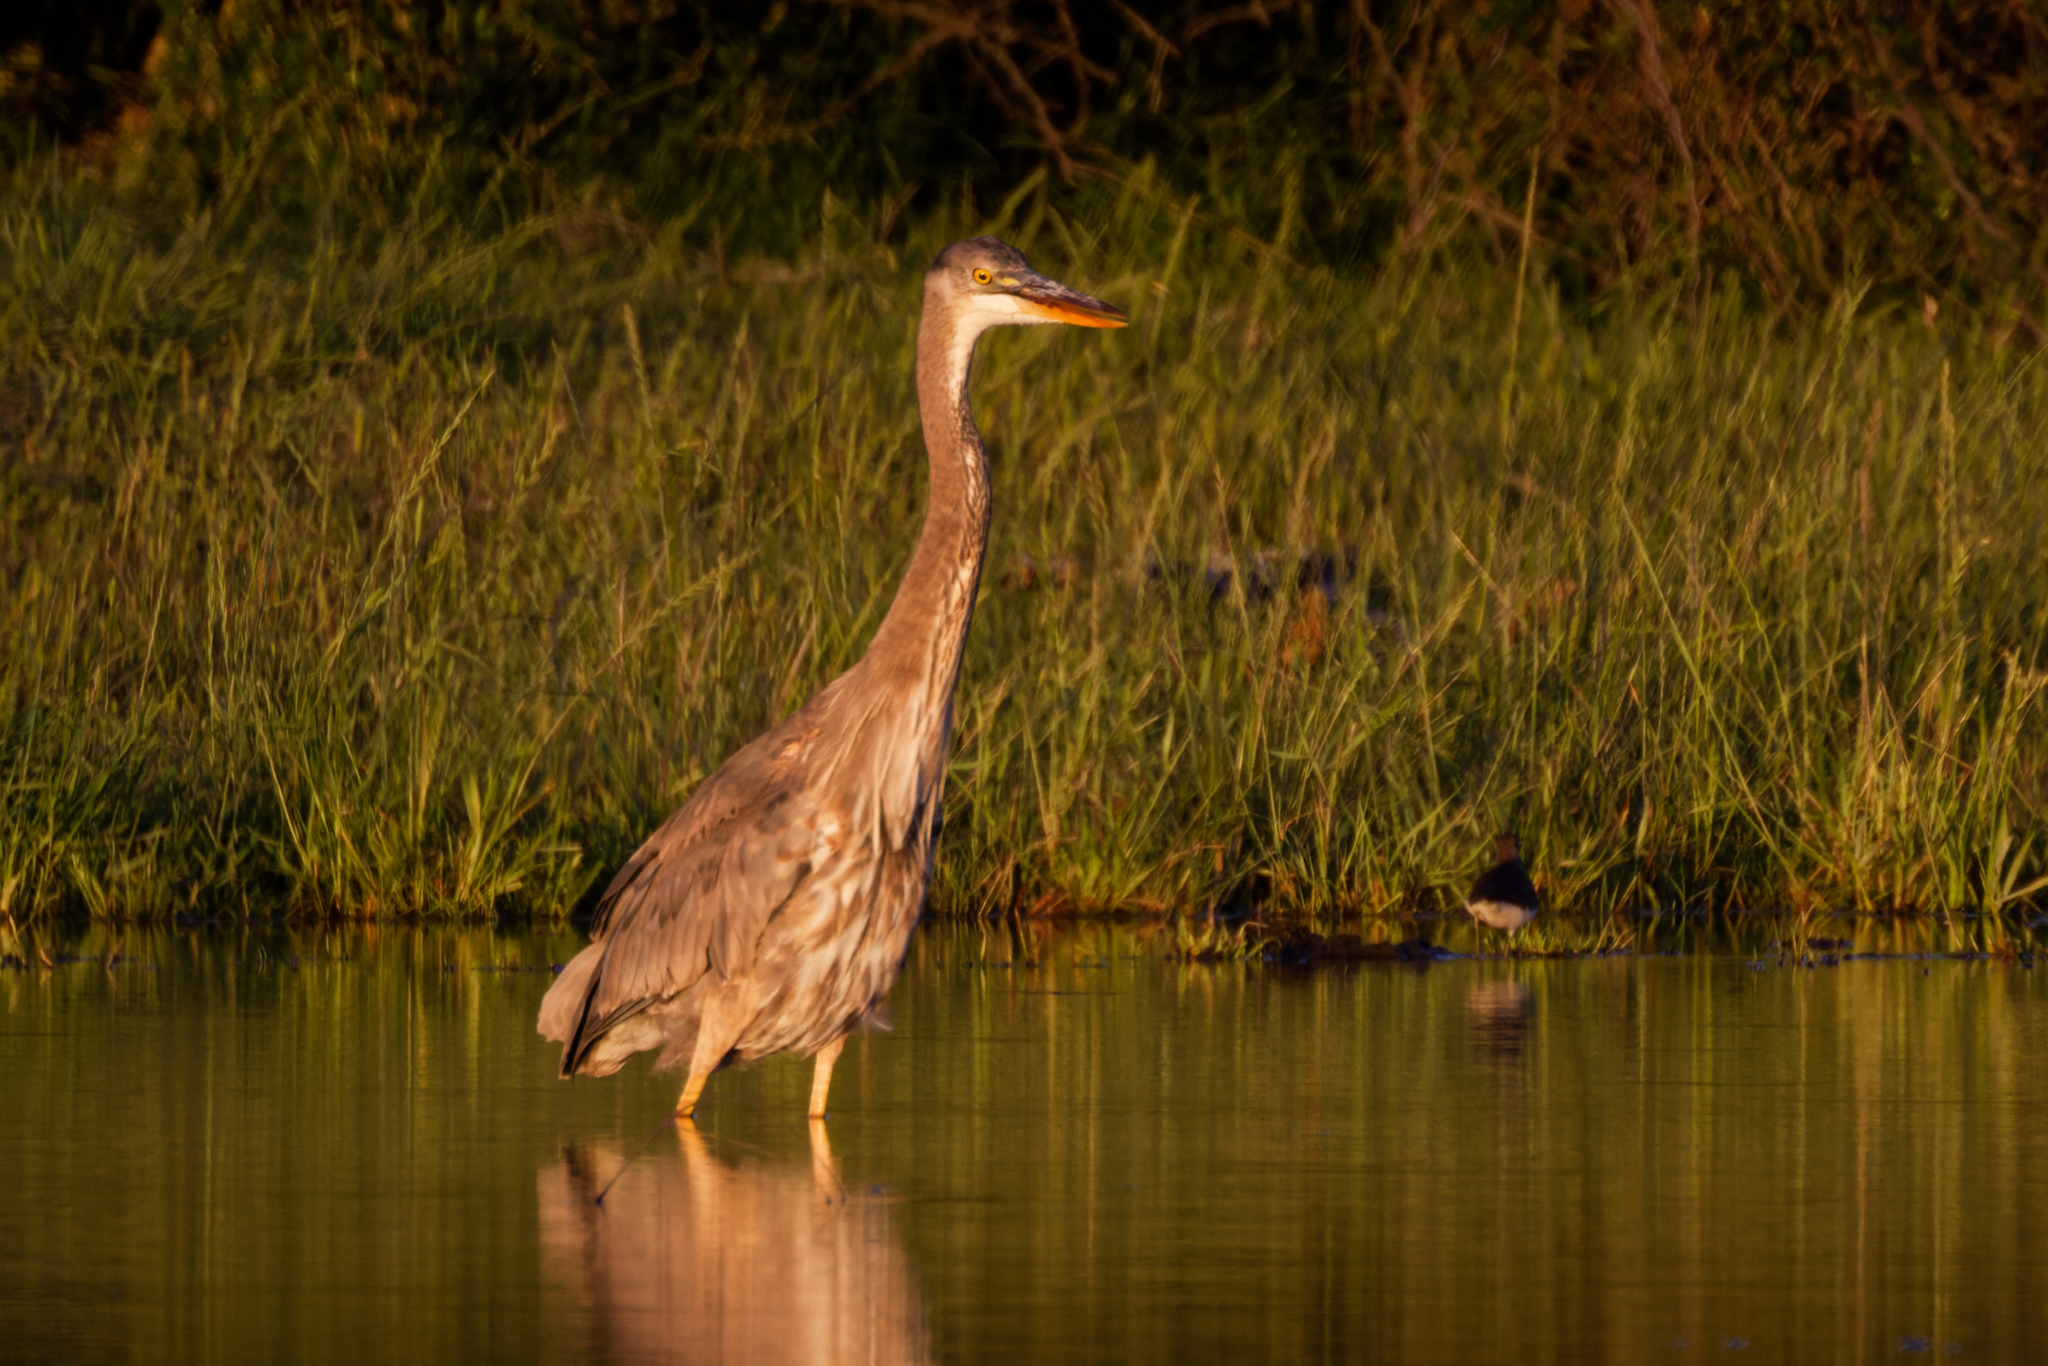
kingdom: Animalia
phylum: Chordata
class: Aves
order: Pelecaniformes
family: Ardeidae
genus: Ardea
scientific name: Ardea herodias
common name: Great blue heron
